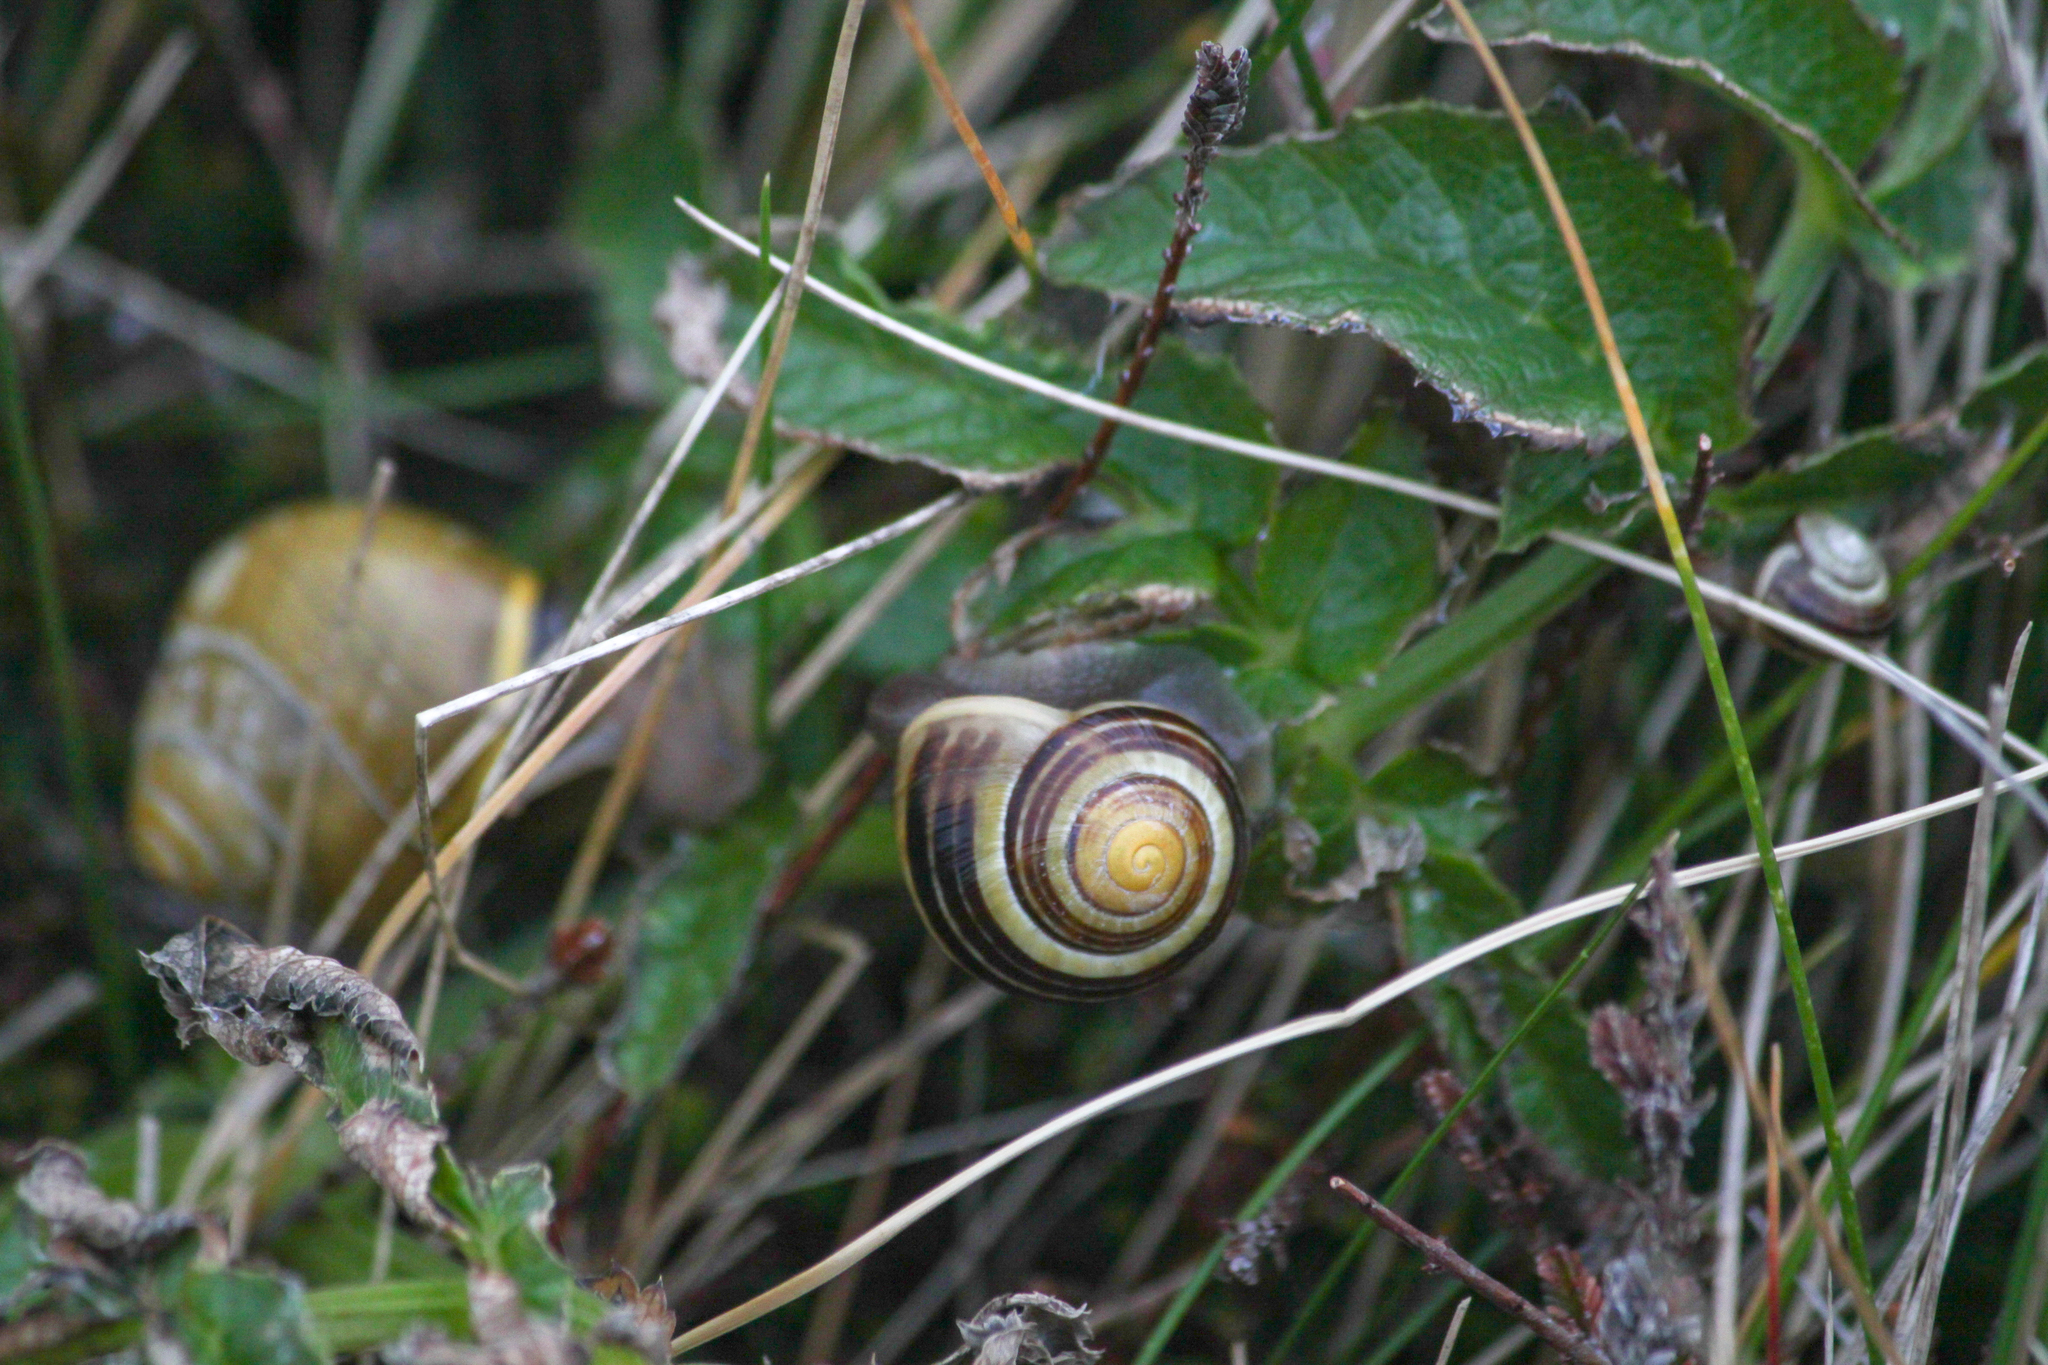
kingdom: Animalia
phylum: Mollusca
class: Gastropoda
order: Stylommatophora
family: Helicidae
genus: Cepaea
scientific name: Cepaea nemoralis
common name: Grovesnail
